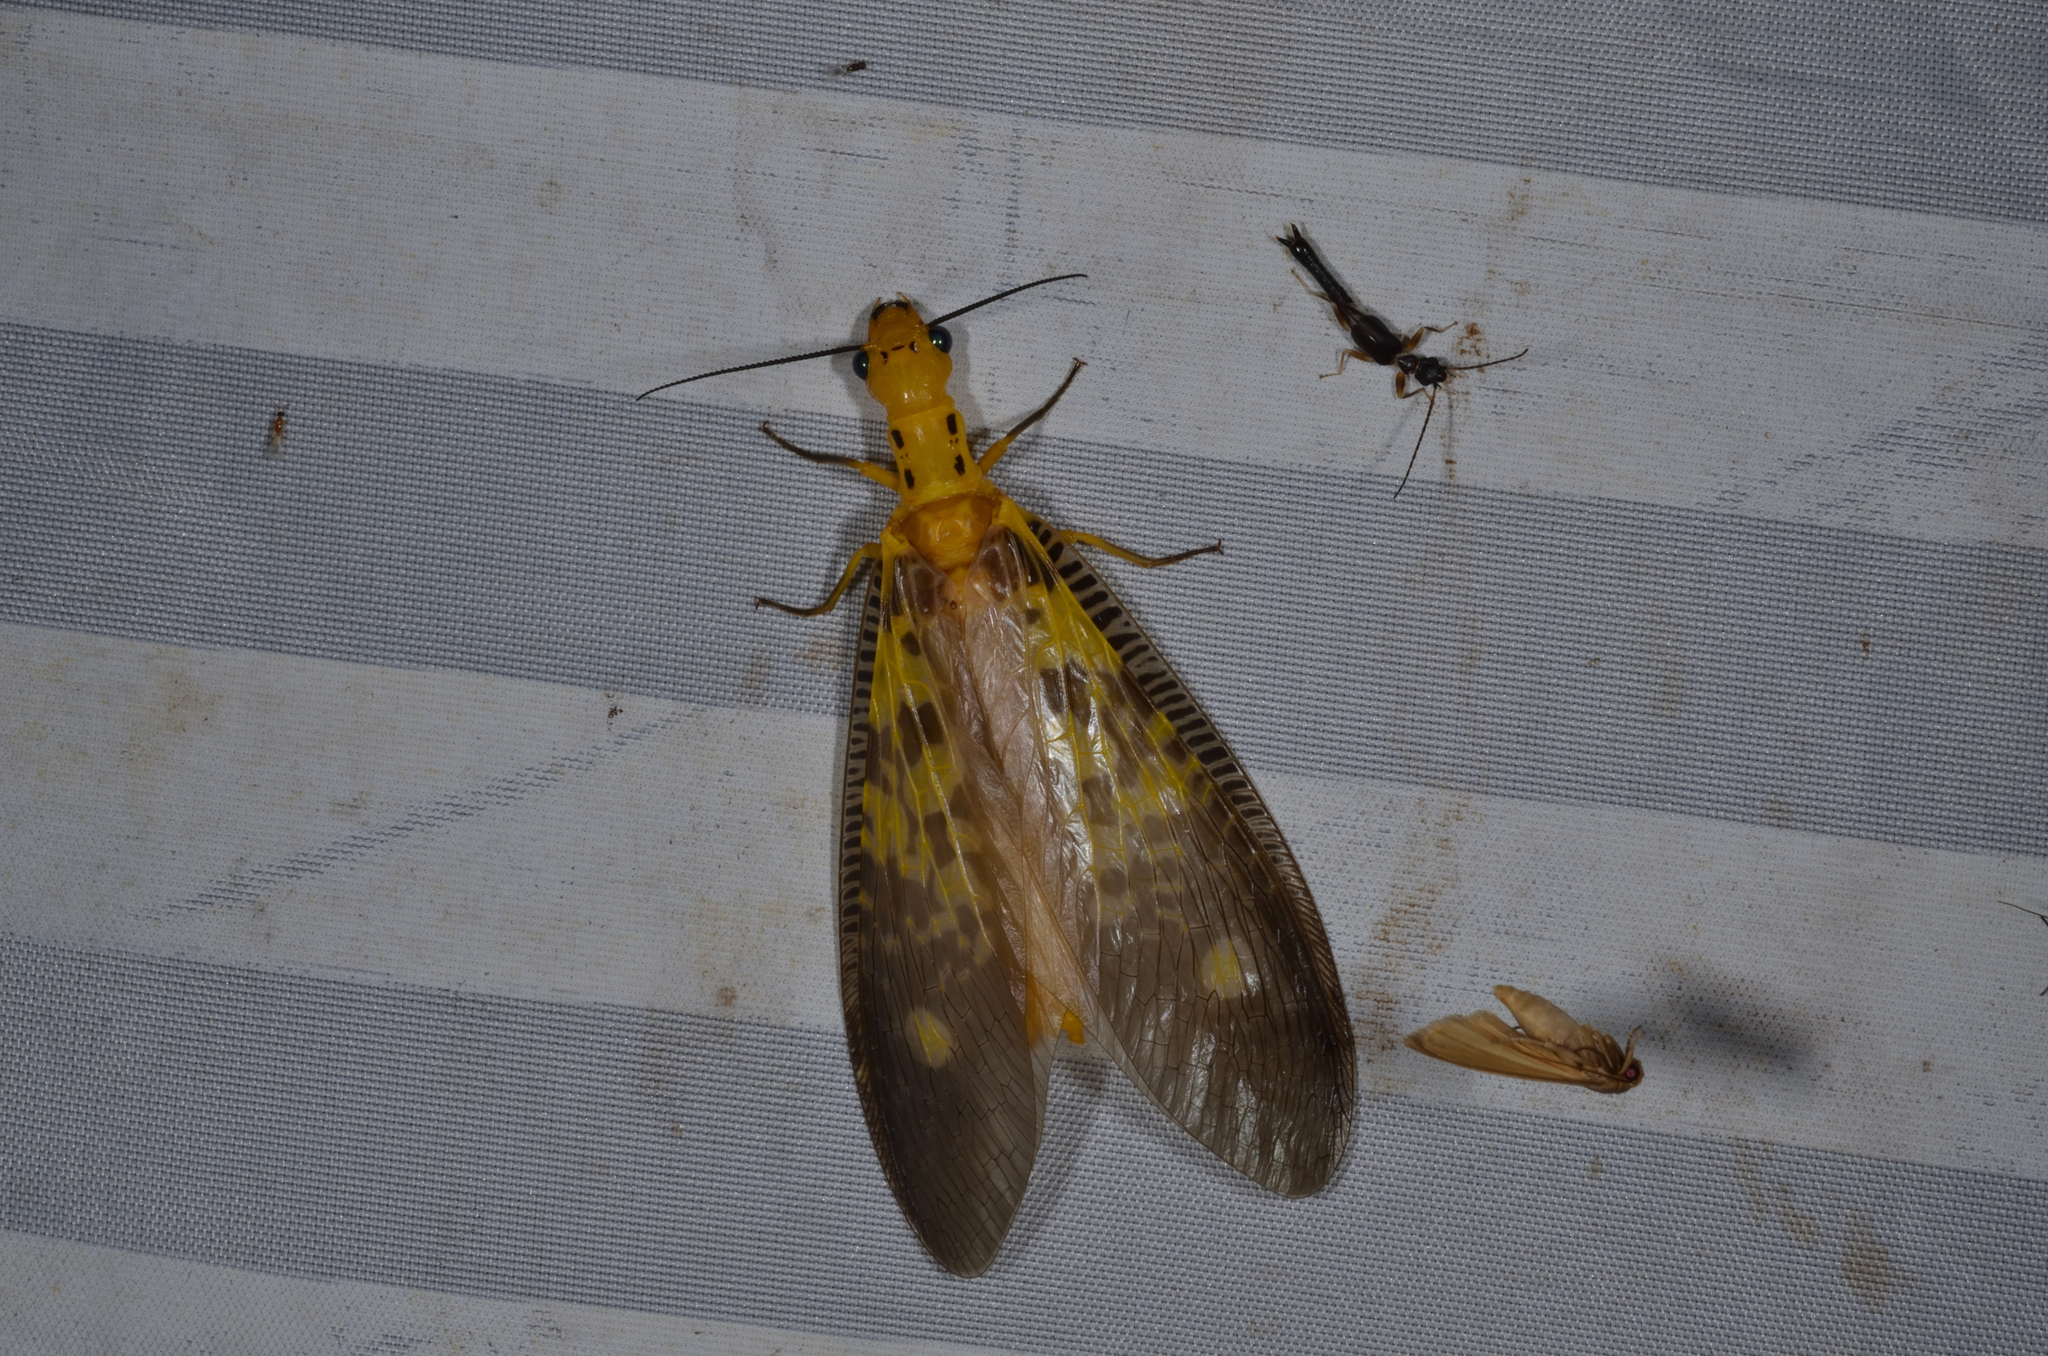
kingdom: Animalia
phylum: Arthropoda
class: Insecta
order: Megaloptera
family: Corydalidae
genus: Protohermes
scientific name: Protohermes lii
